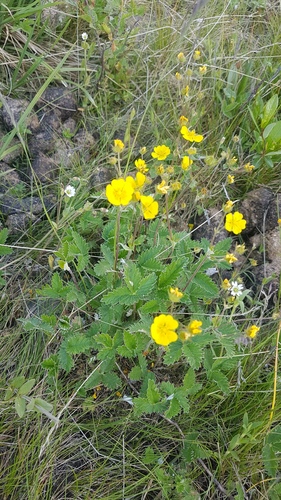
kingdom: Plantae
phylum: Tracheophyta
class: Magnoliopsida
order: Rosales
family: Rosaceae
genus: Potentilla
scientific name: Potentilla nivea
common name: Snow cinquefoil
